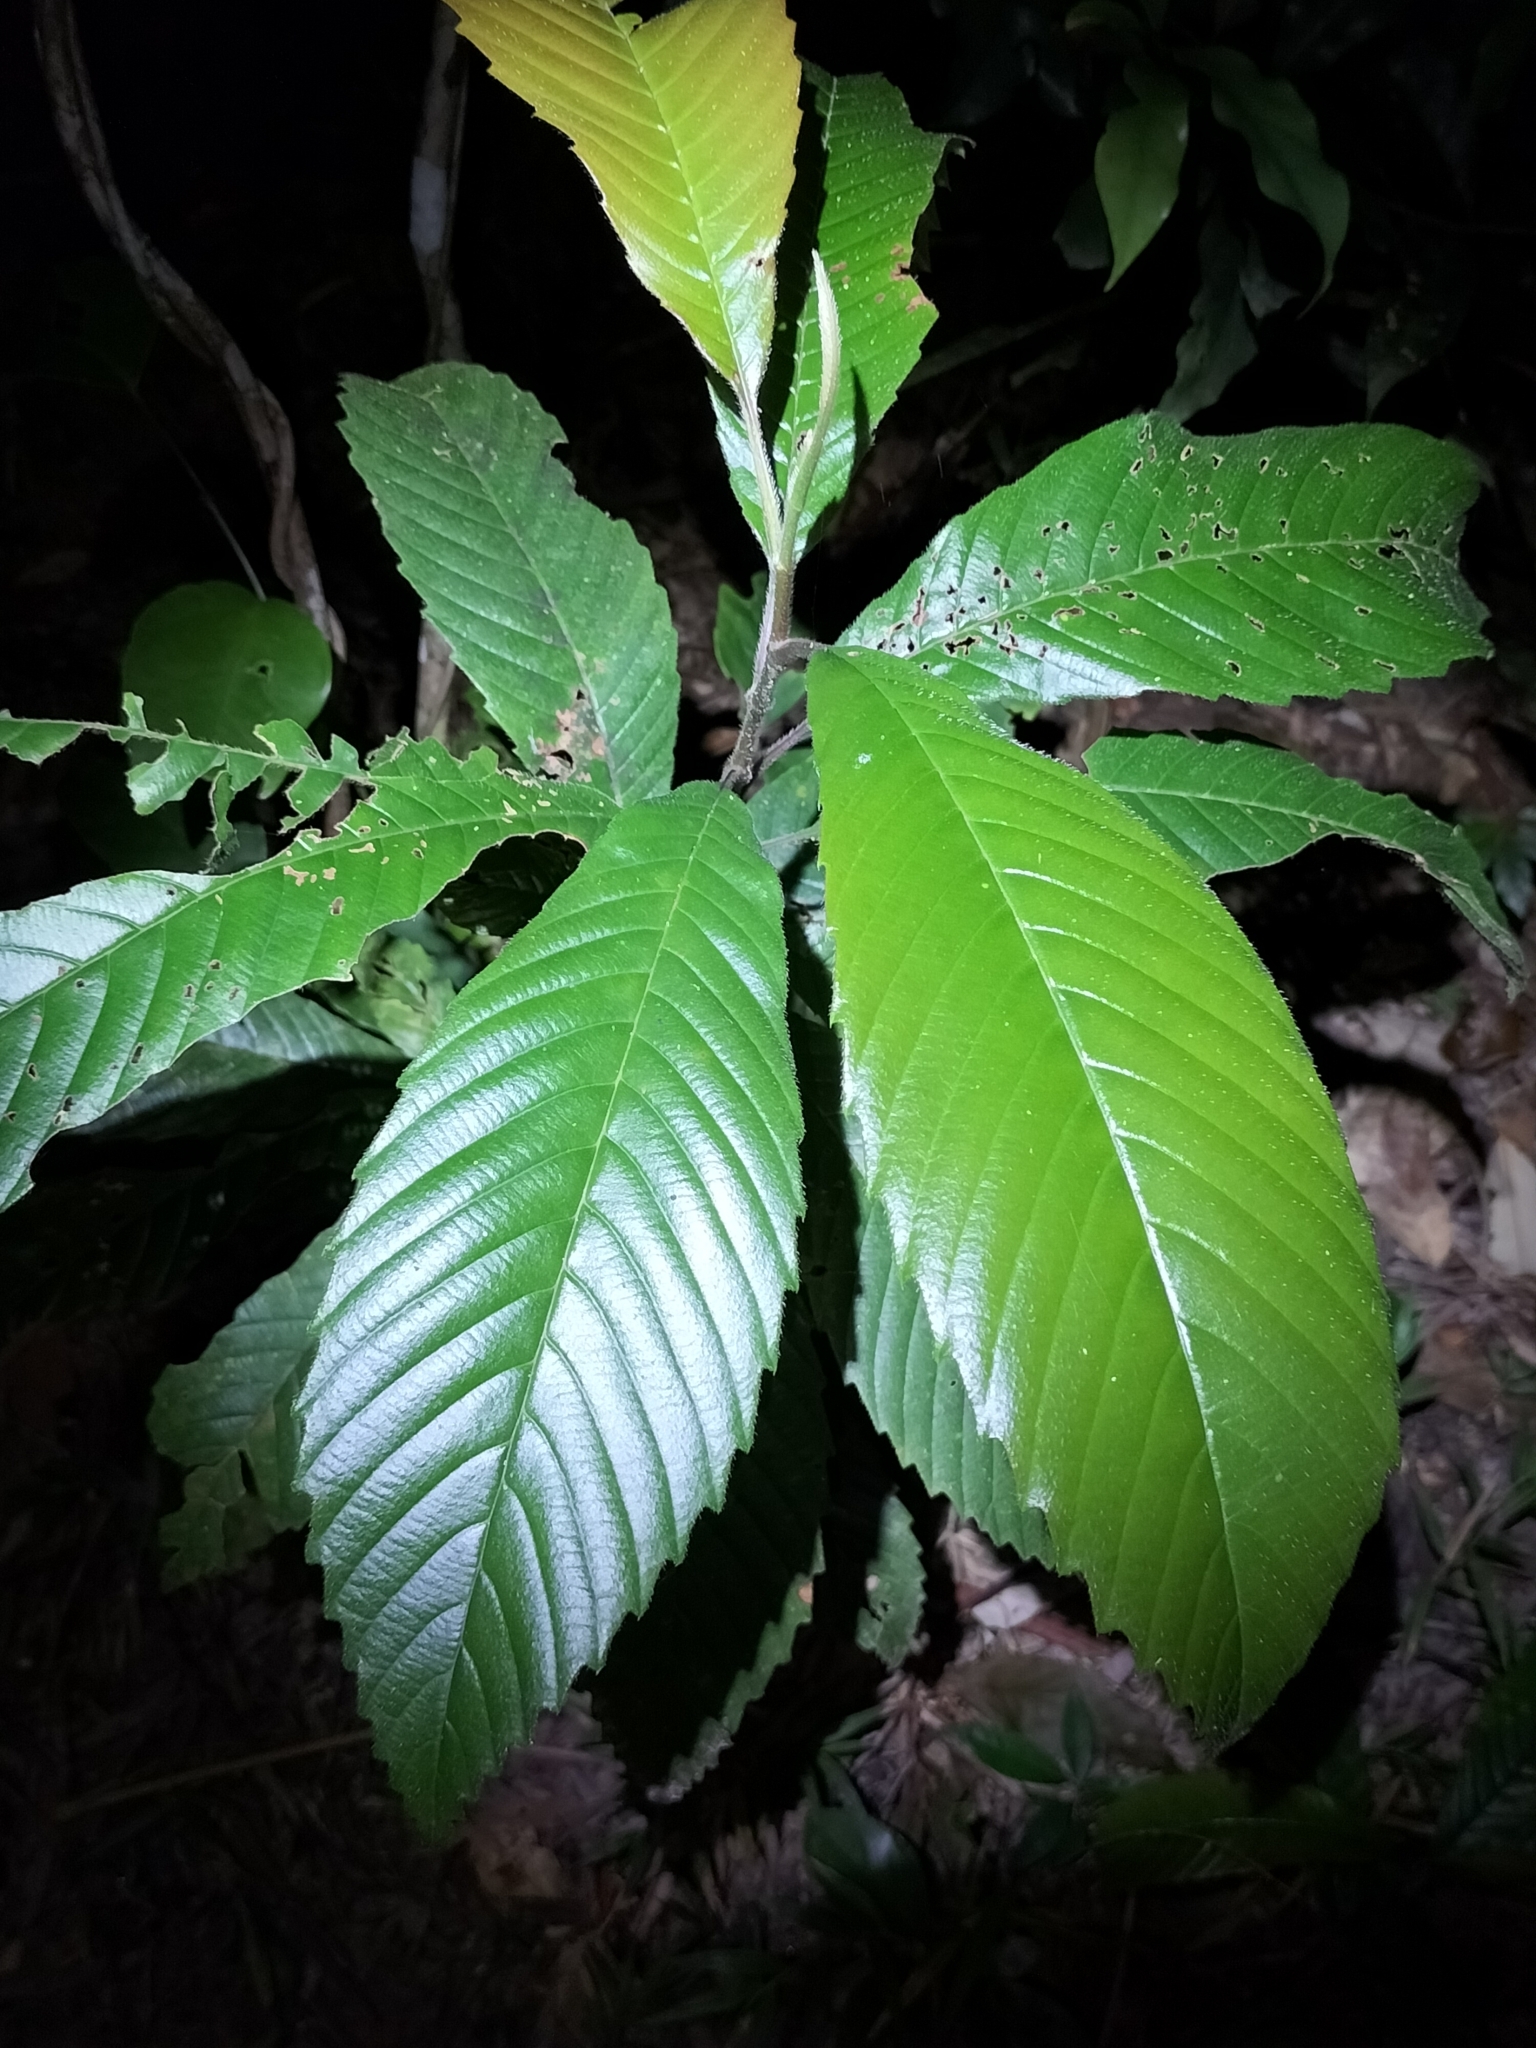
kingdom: Plantae
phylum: Tracheophyta
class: Magnoliopsida
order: Dilleniales
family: Dilleniaceae
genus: Tetracera
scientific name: Tetracera nordtiana
